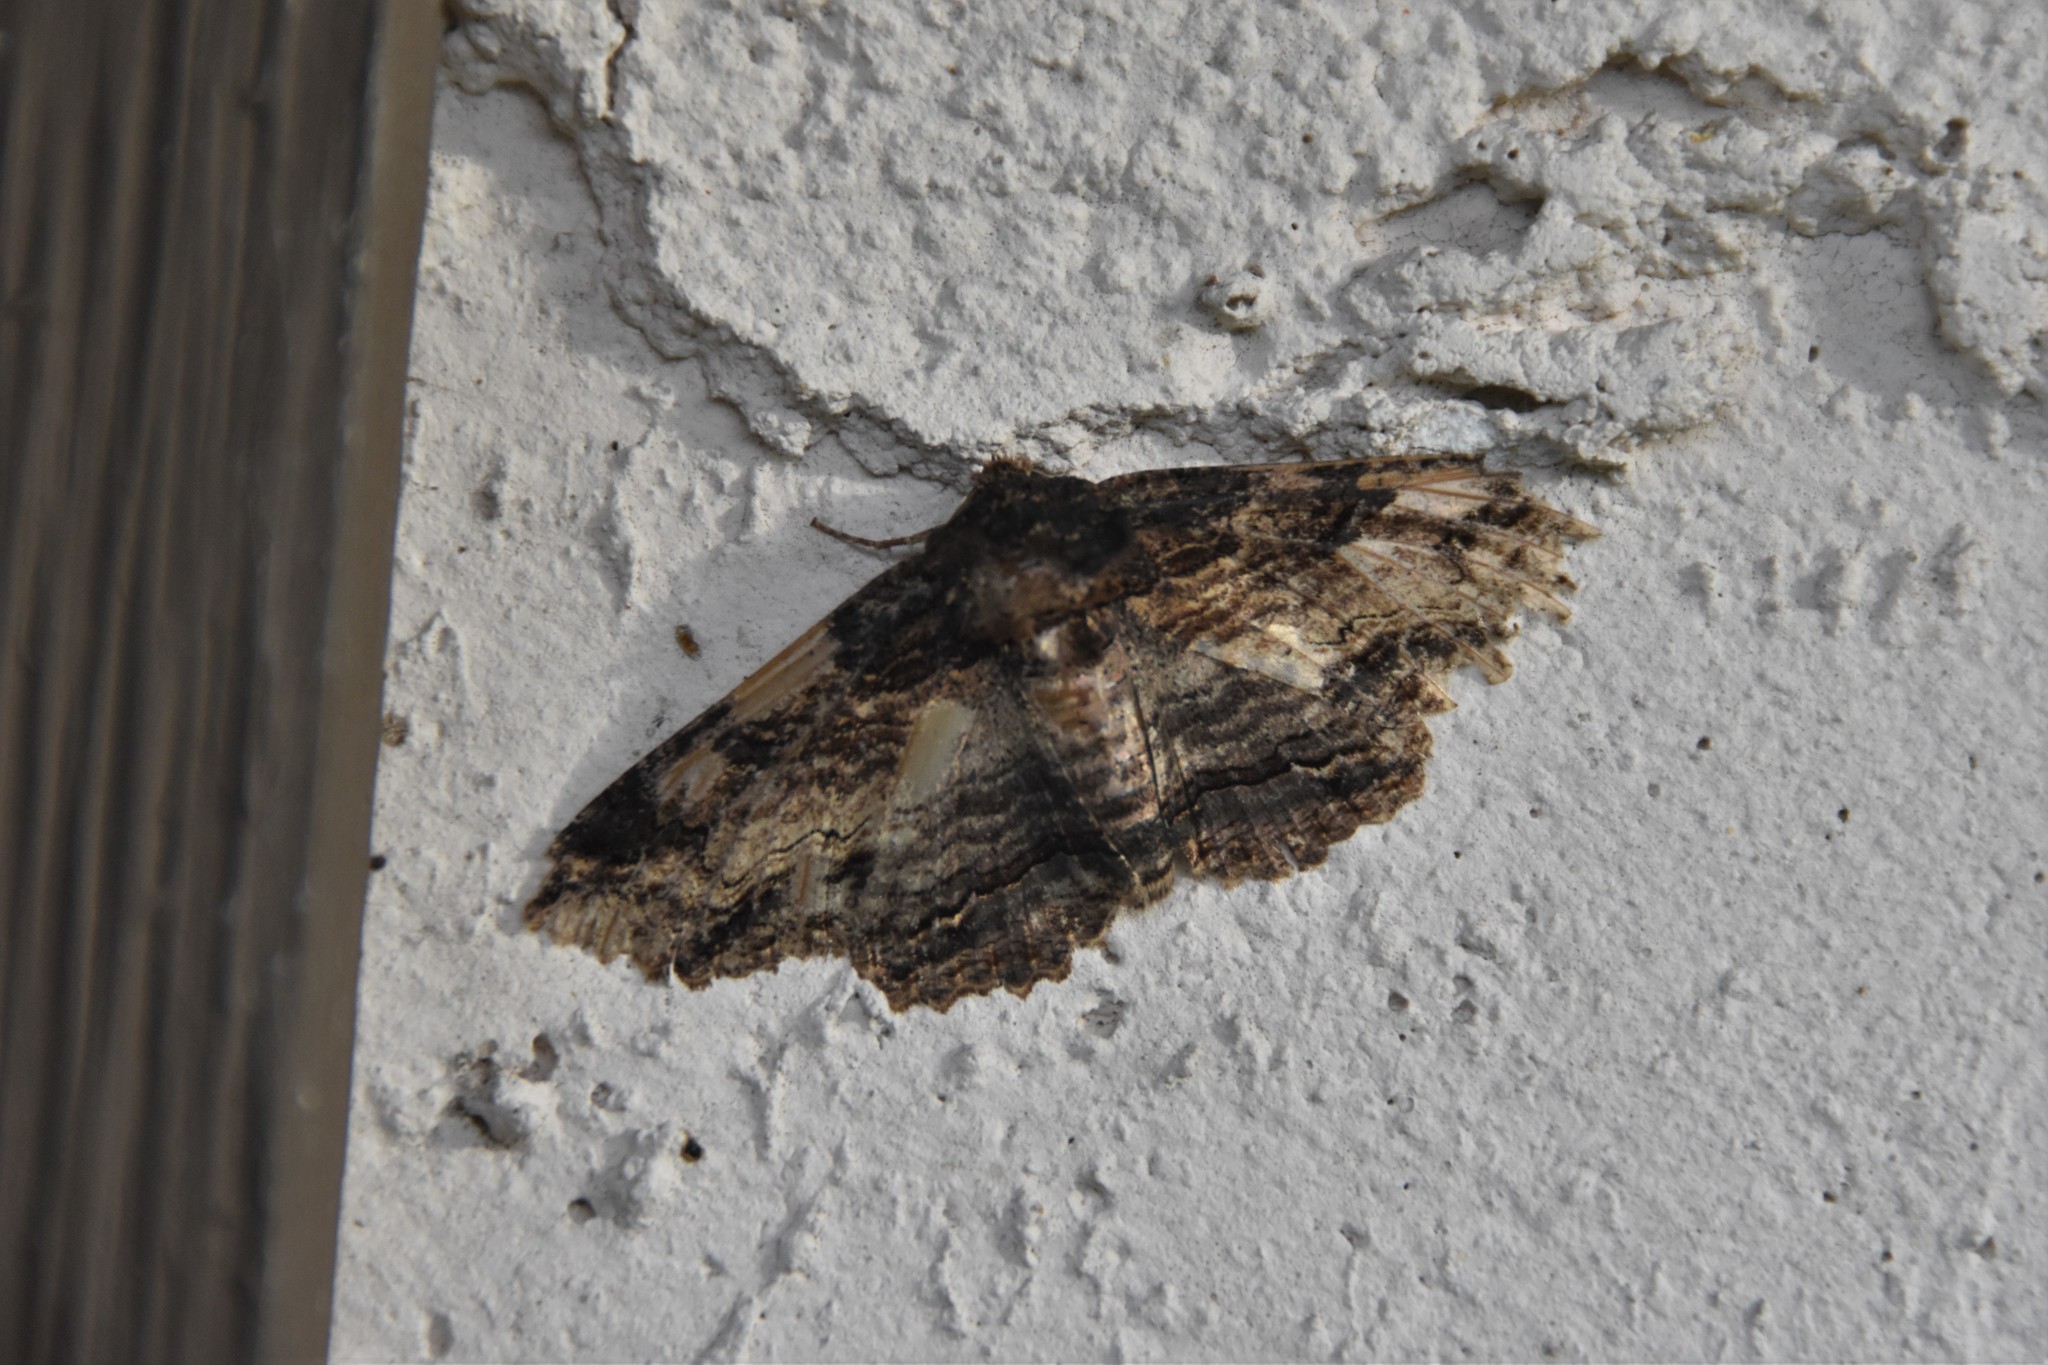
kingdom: Animalia
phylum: Arthropoda
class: Insecta
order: Lepidoptera
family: Erebidae
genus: Zale
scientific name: Zale lunata
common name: Lunate zale moth
